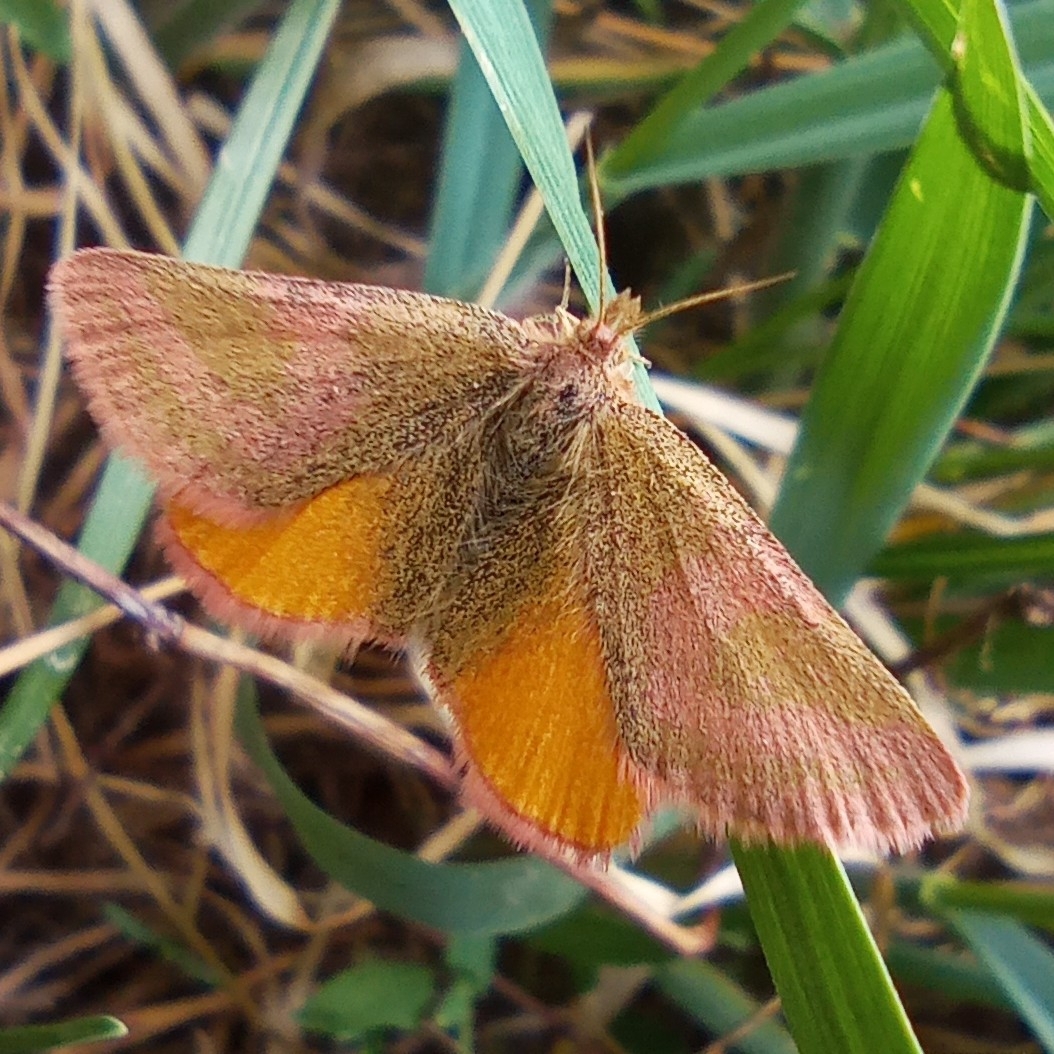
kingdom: Animalia
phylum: Arthropoda
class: Insecta
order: Lepidoptera
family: Geometridae
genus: Lythria
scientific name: Lythria purpuraria
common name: Purple-barred yellow
